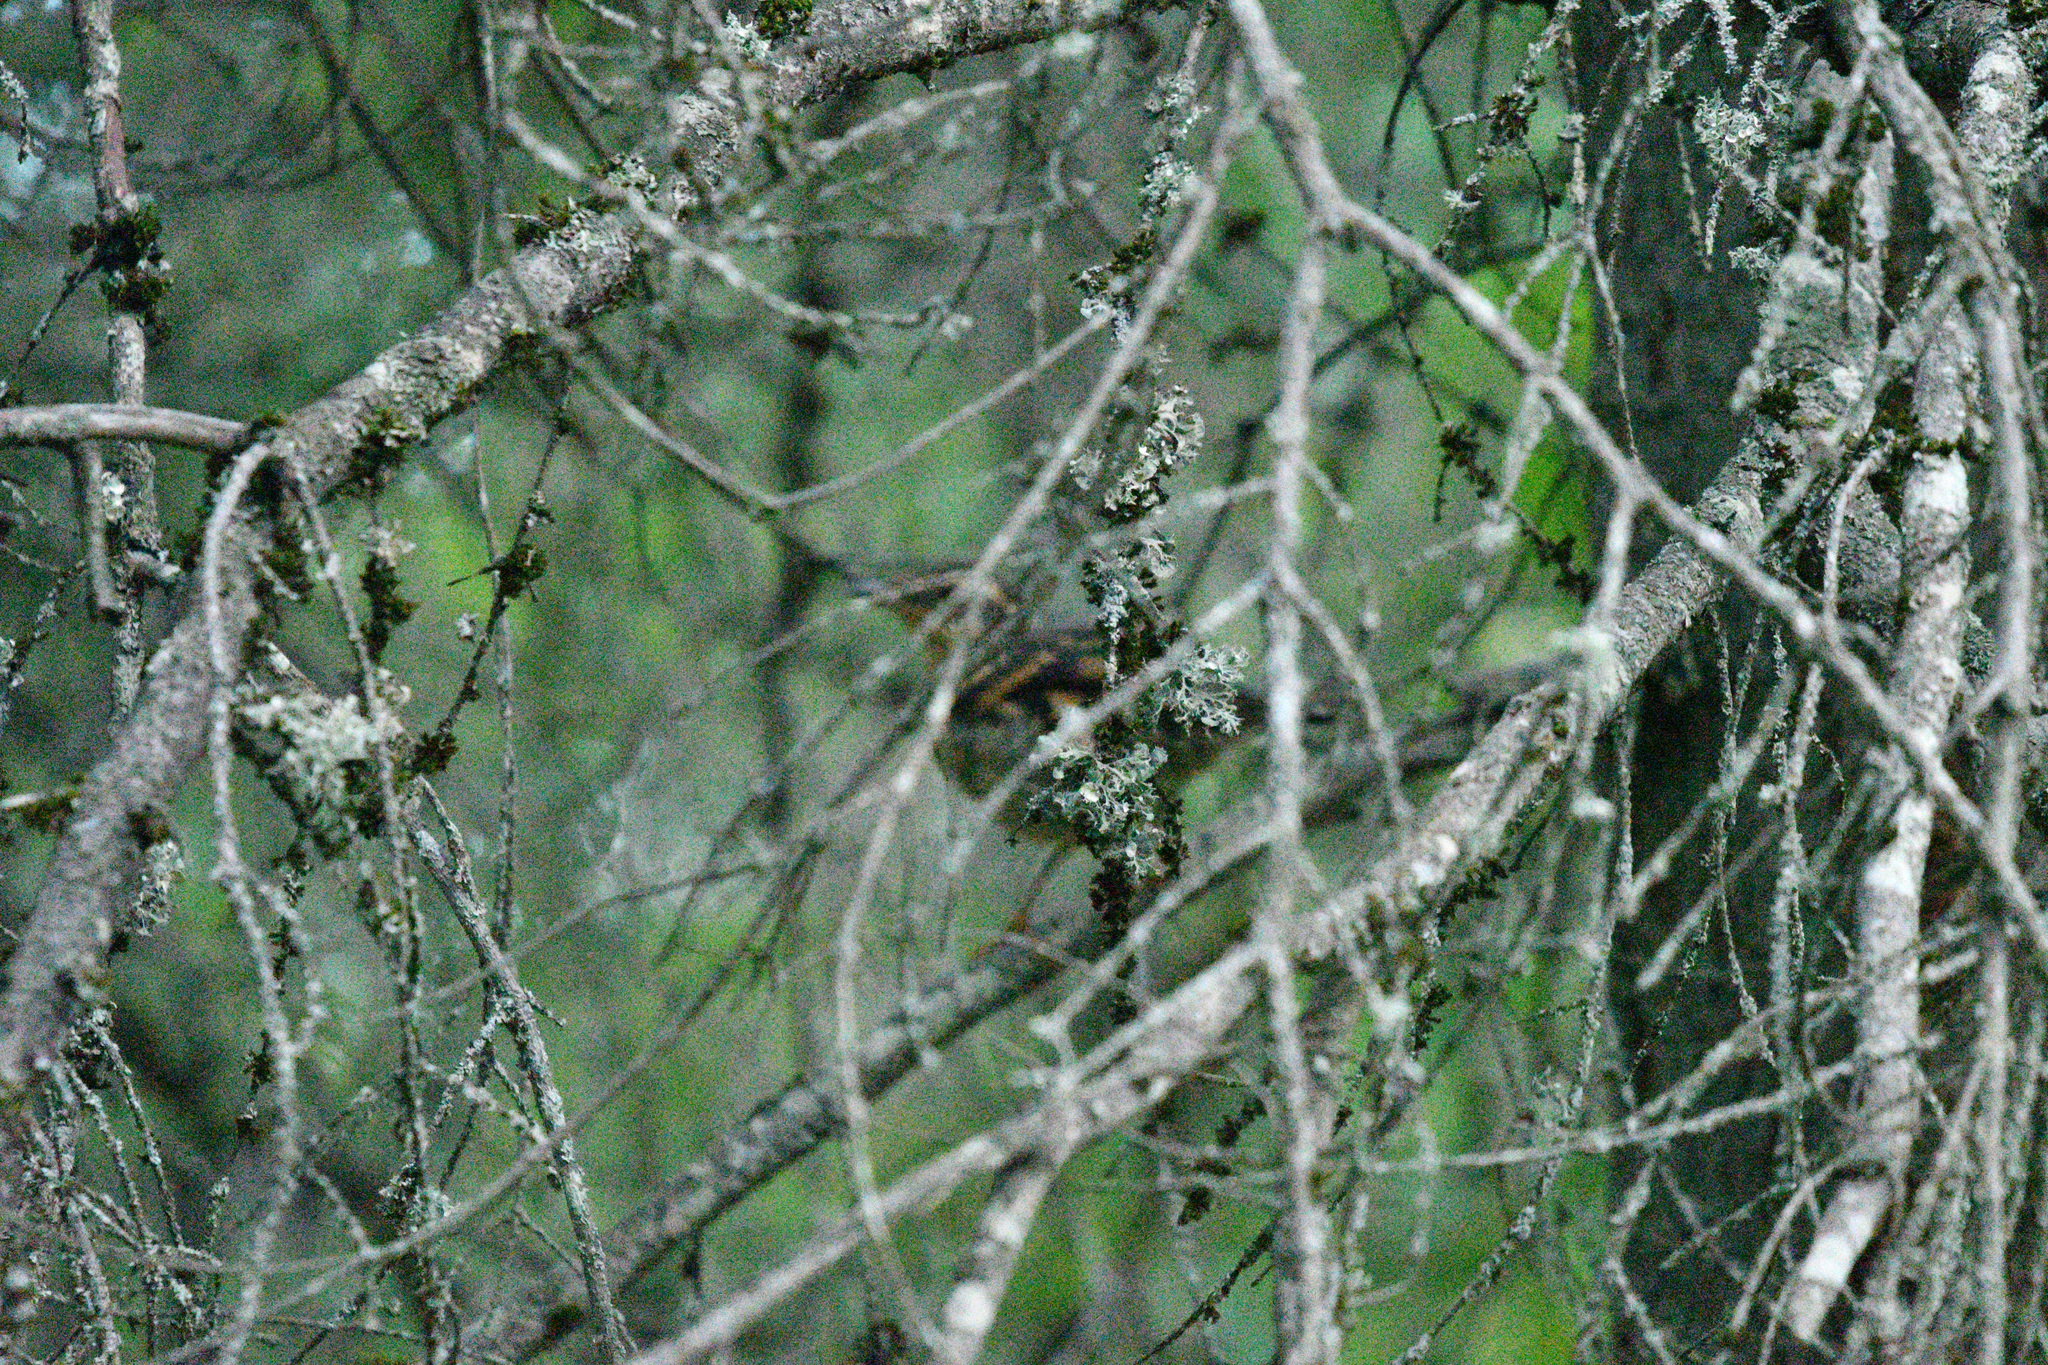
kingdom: Animalia
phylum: Chordata
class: Aves
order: Passeriformes
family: Turdidae
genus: Ixoreus
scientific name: Ixoreus naevius
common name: Varied thrush
